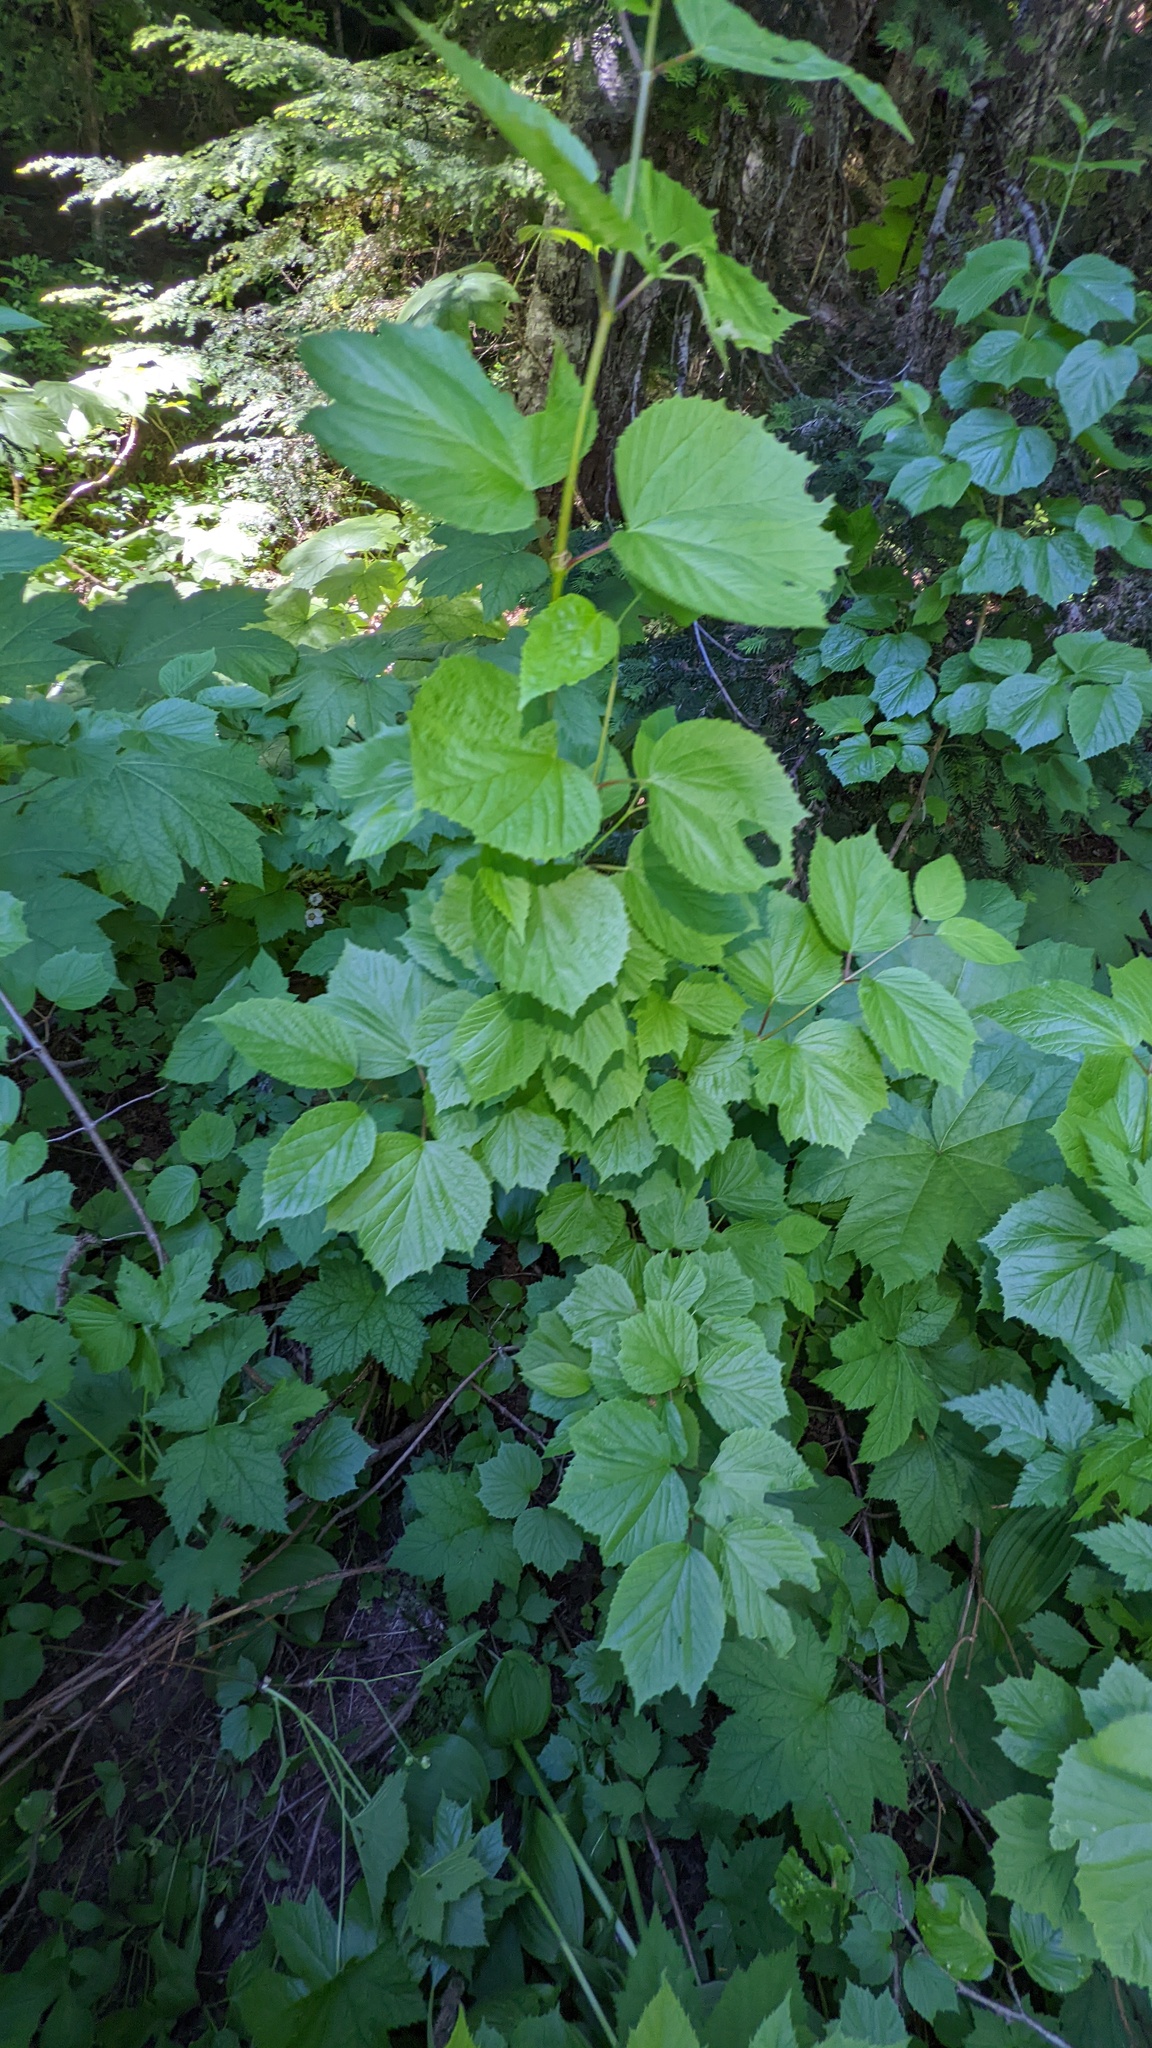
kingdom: Plantae
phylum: Tracheophyta
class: Magnoliopsida
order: Dipsacales
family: Viburnaceae
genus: Viburnum
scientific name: Viburnum edule
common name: Mooseberry
